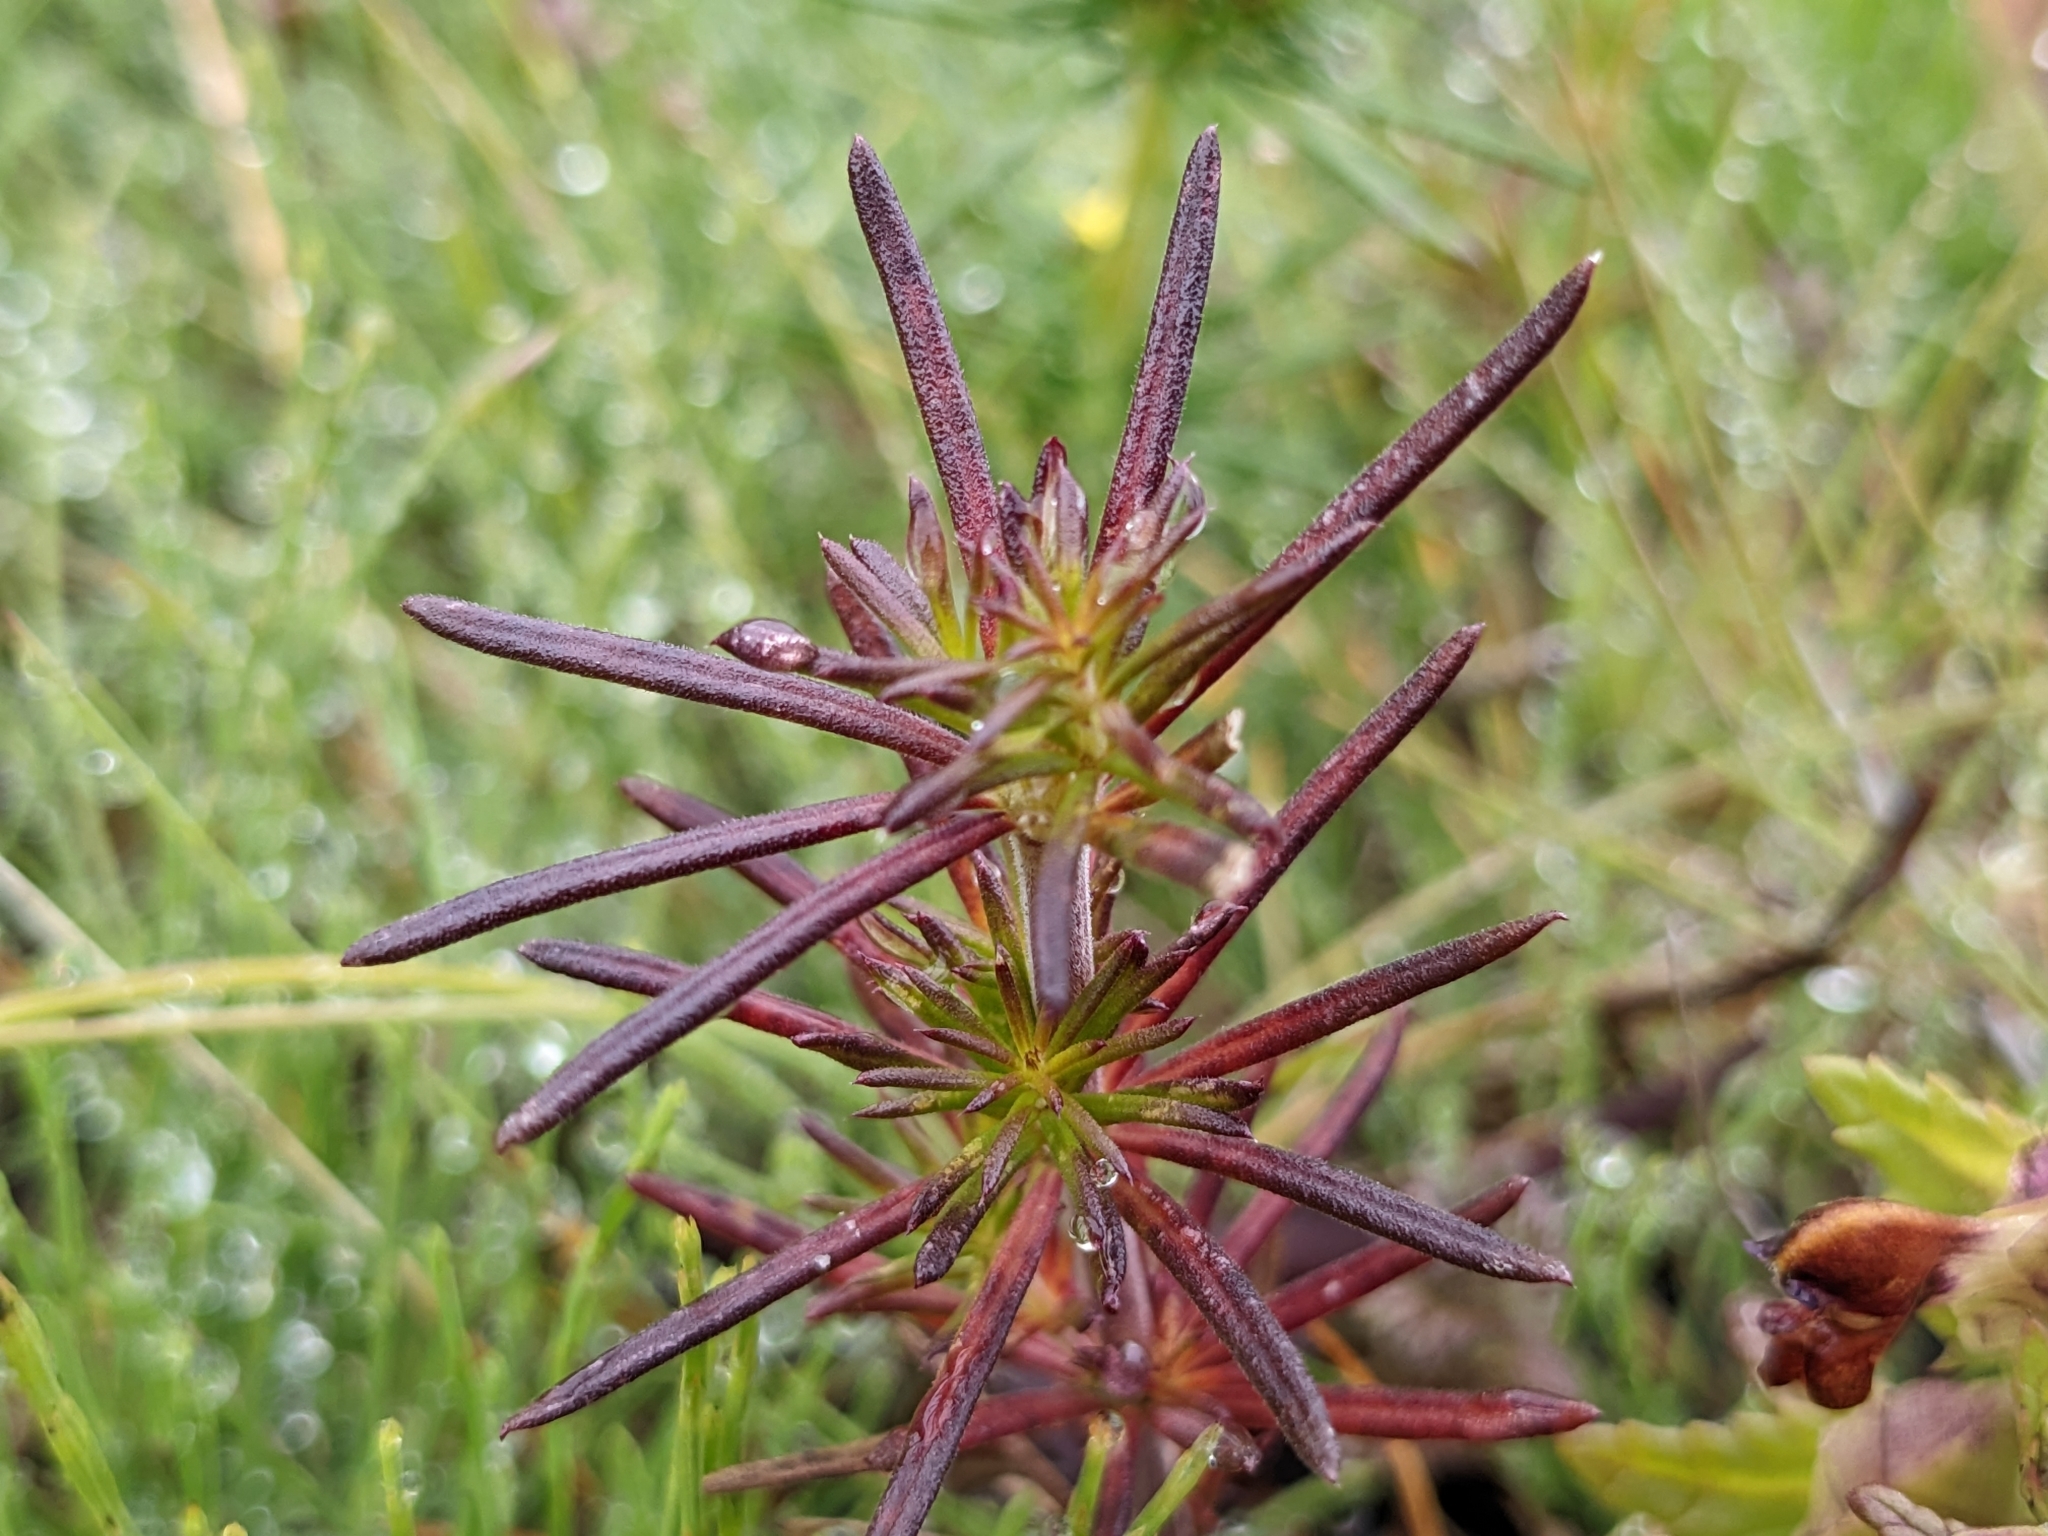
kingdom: Plantae
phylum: Tracheophyta
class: Magnoliopsida
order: Gentianales
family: Rubiaceae
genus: Galium
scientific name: Galium verum
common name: Lady's bedstraw
